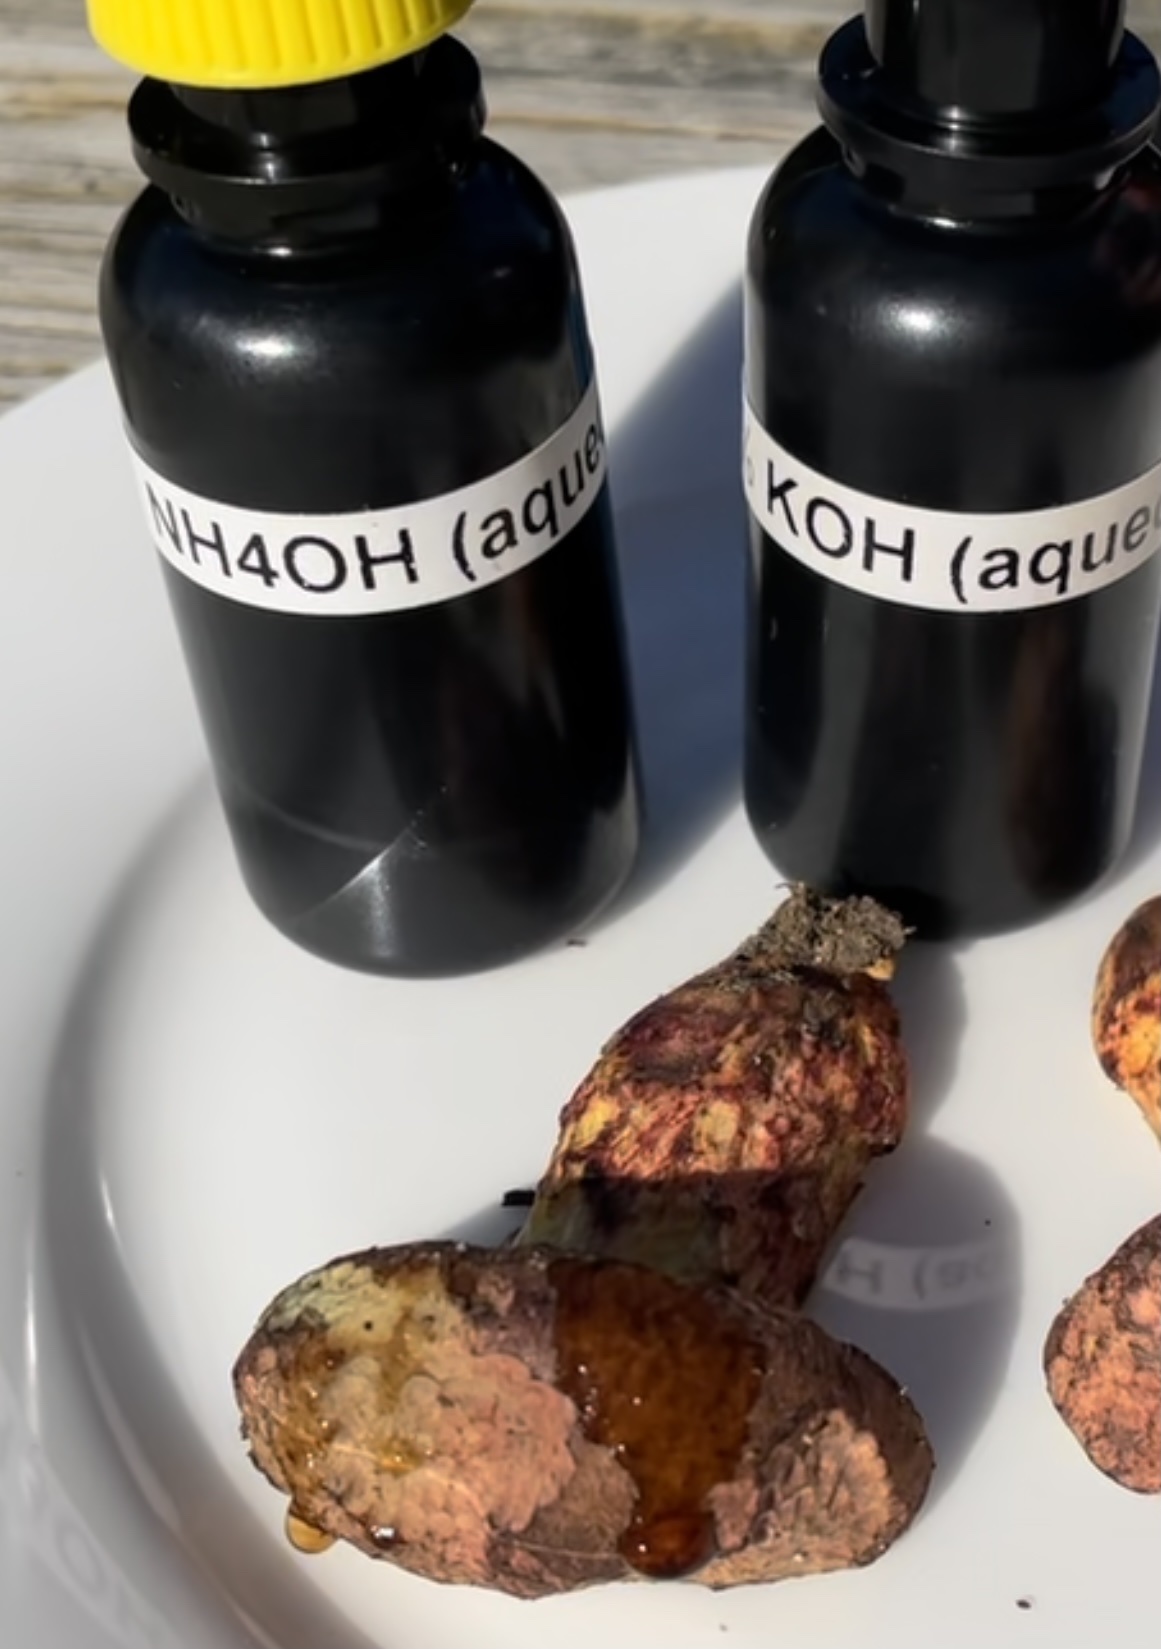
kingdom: Fungi
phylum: Basidiomycota
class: Agaricomycetes
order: Boletales
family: Boletaceae
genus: Boletus
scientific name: Boletus billieae
